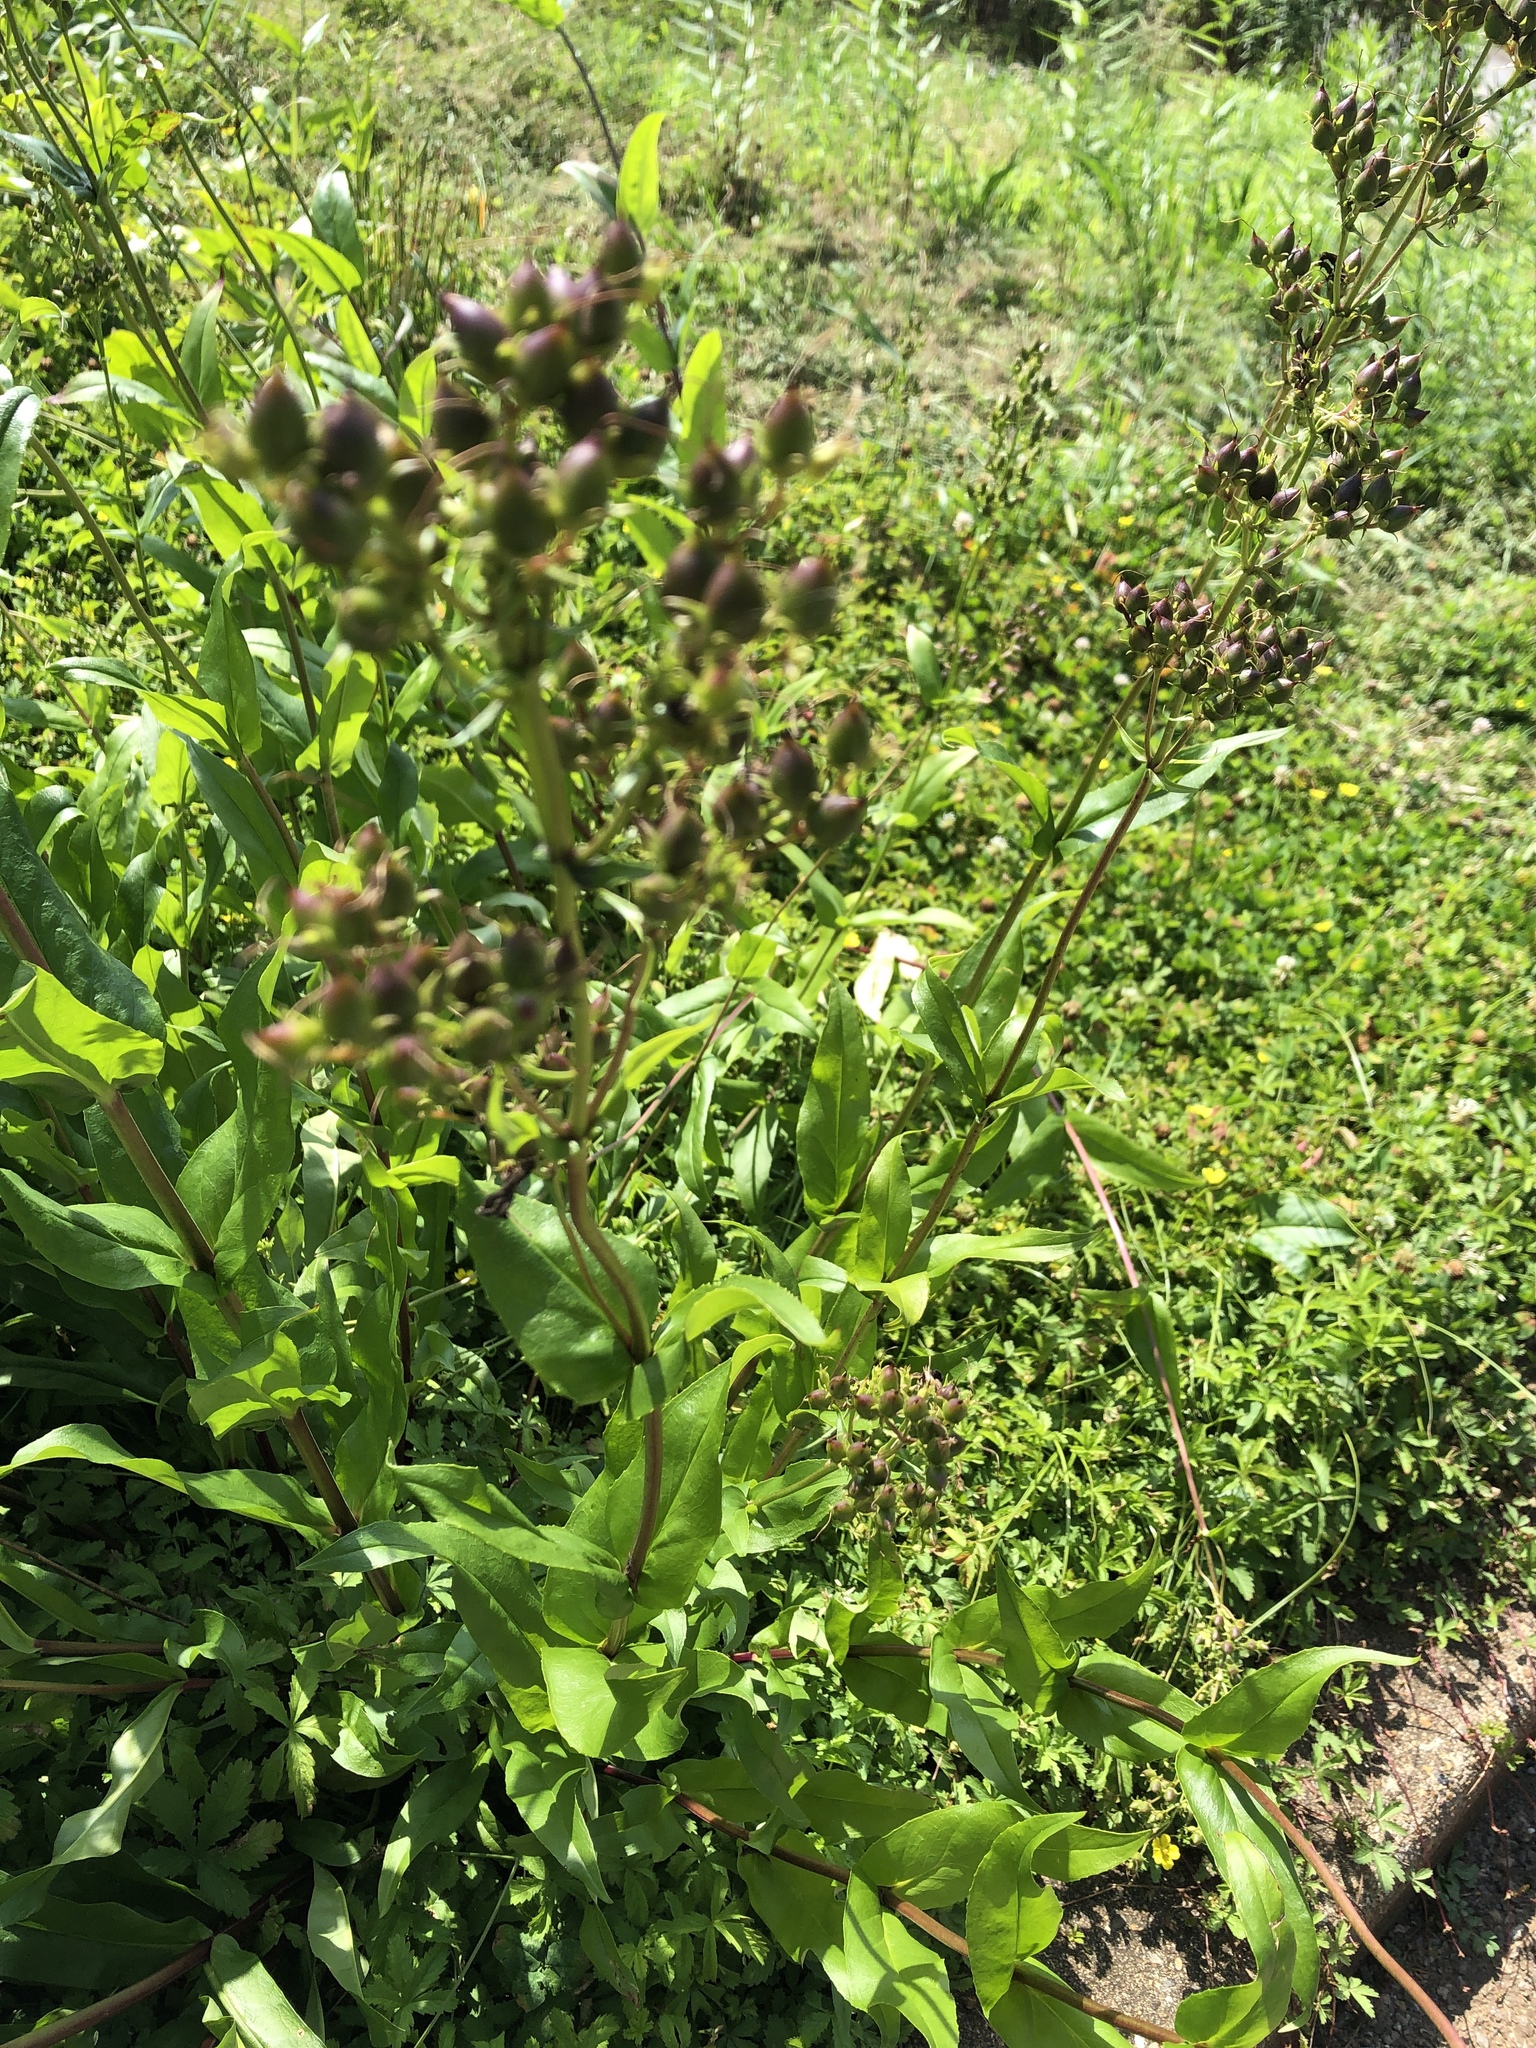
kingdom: Plantae
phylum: Tracheophyta
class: Magnoliopsida
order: Lamiales
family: Plantaginaceae
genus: Penstemon
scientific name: Penstemon digitalis
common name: Foxglove beardtongue
